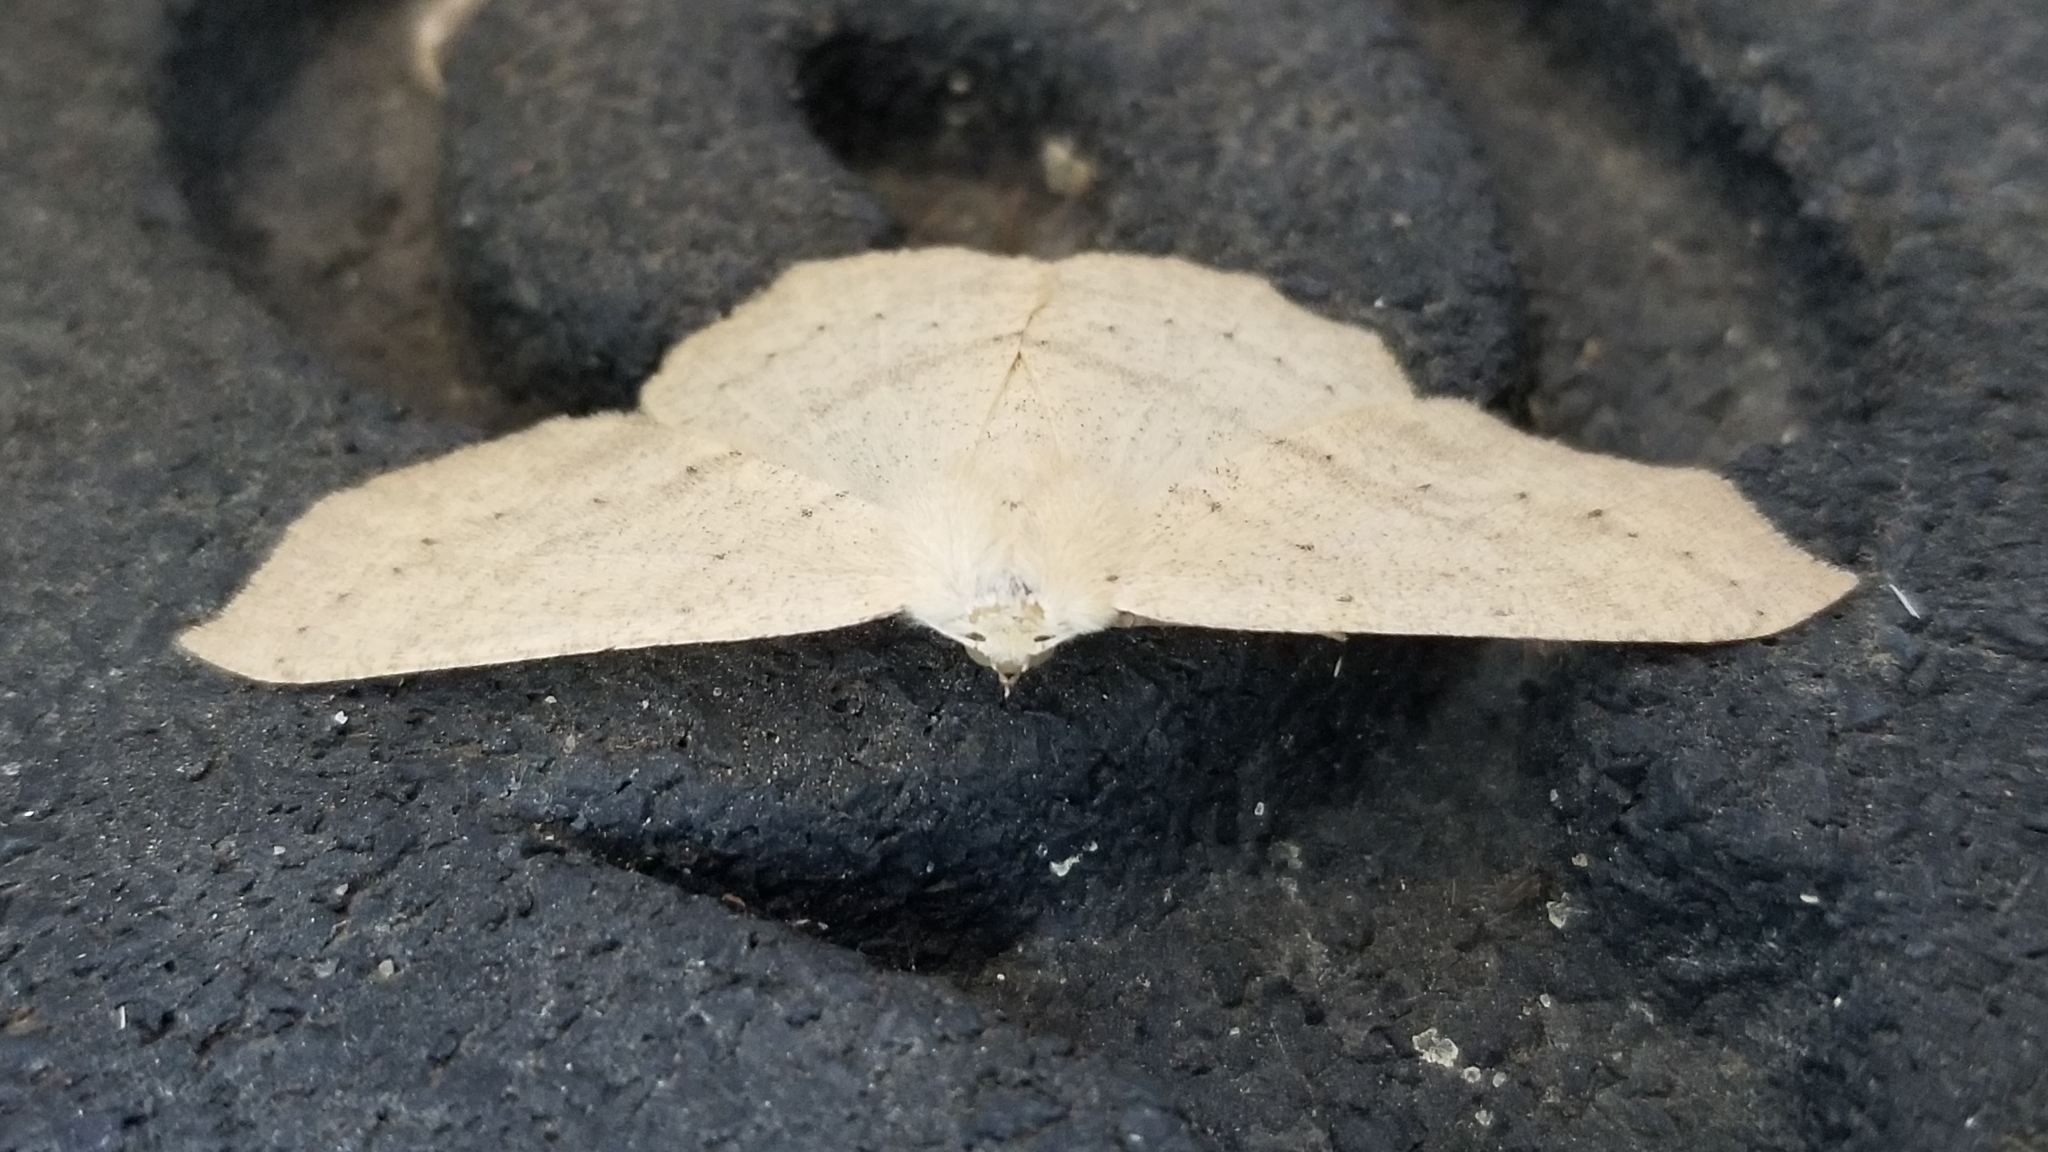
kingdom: Animalia
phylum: Arthropoda
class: Insecta
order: Lepidoptera
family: Geometridae
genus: Sabulodes
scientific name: Sabulodes aegrotata
